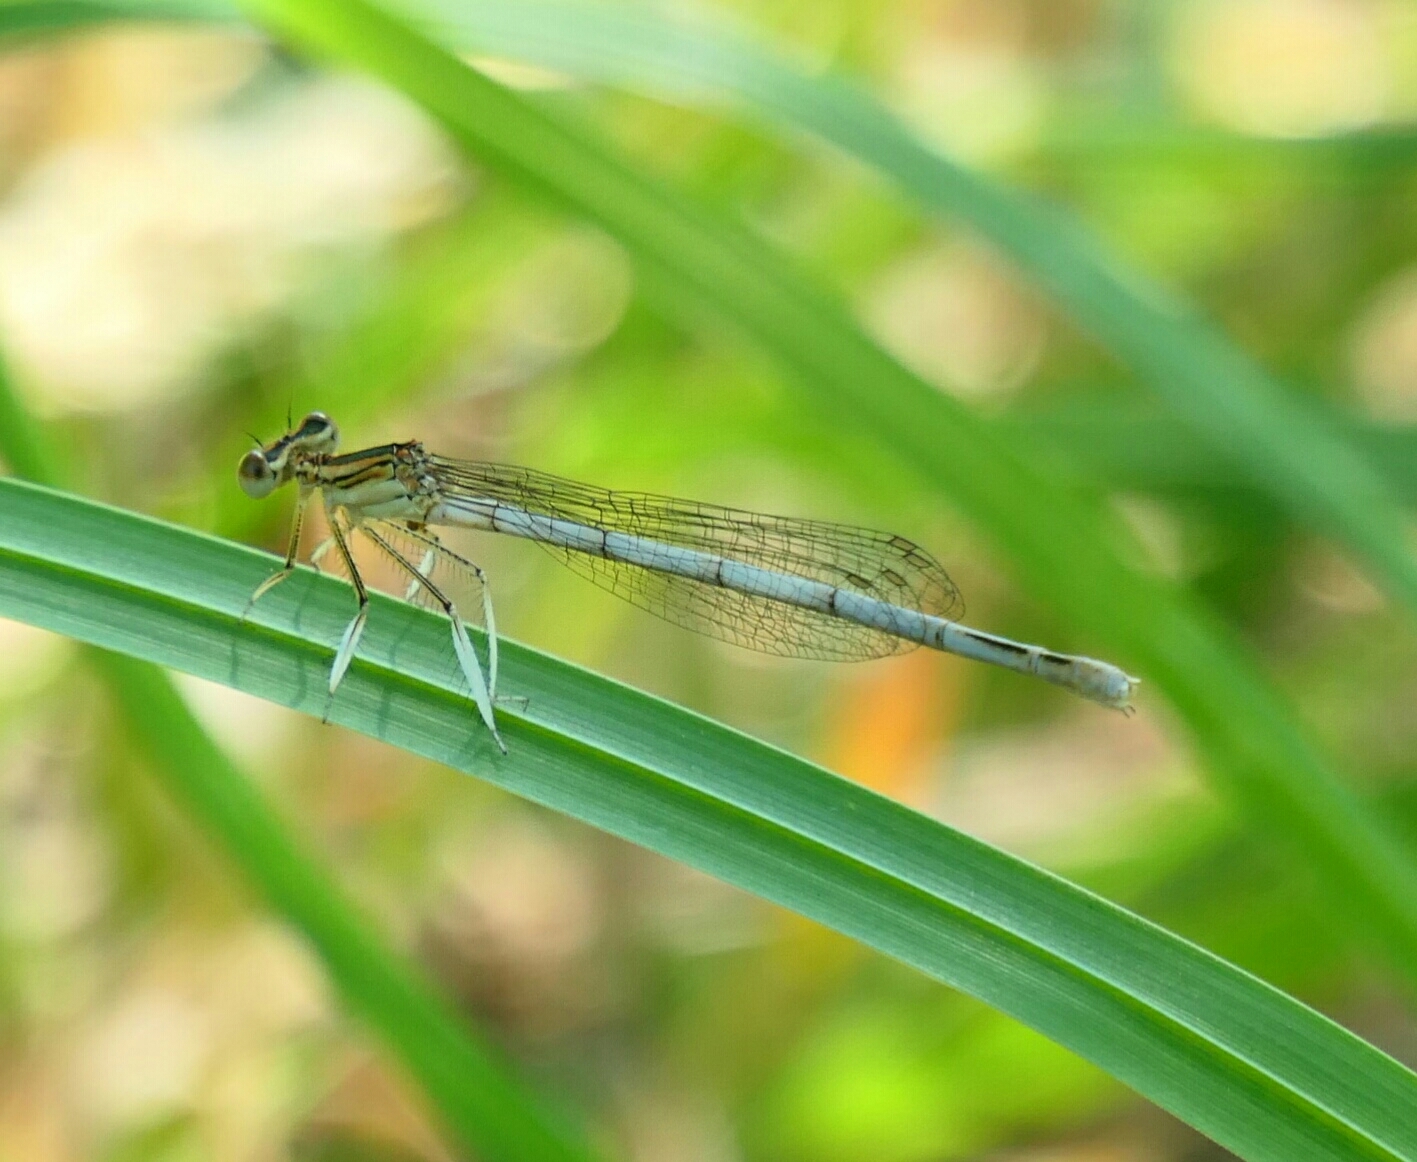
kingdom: Animalia
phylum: Arthropoda
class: Insecta
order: Odonata
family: Platycnemididae
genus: Platycnemis
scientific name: Platycnemis latipes
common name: White featherleg
